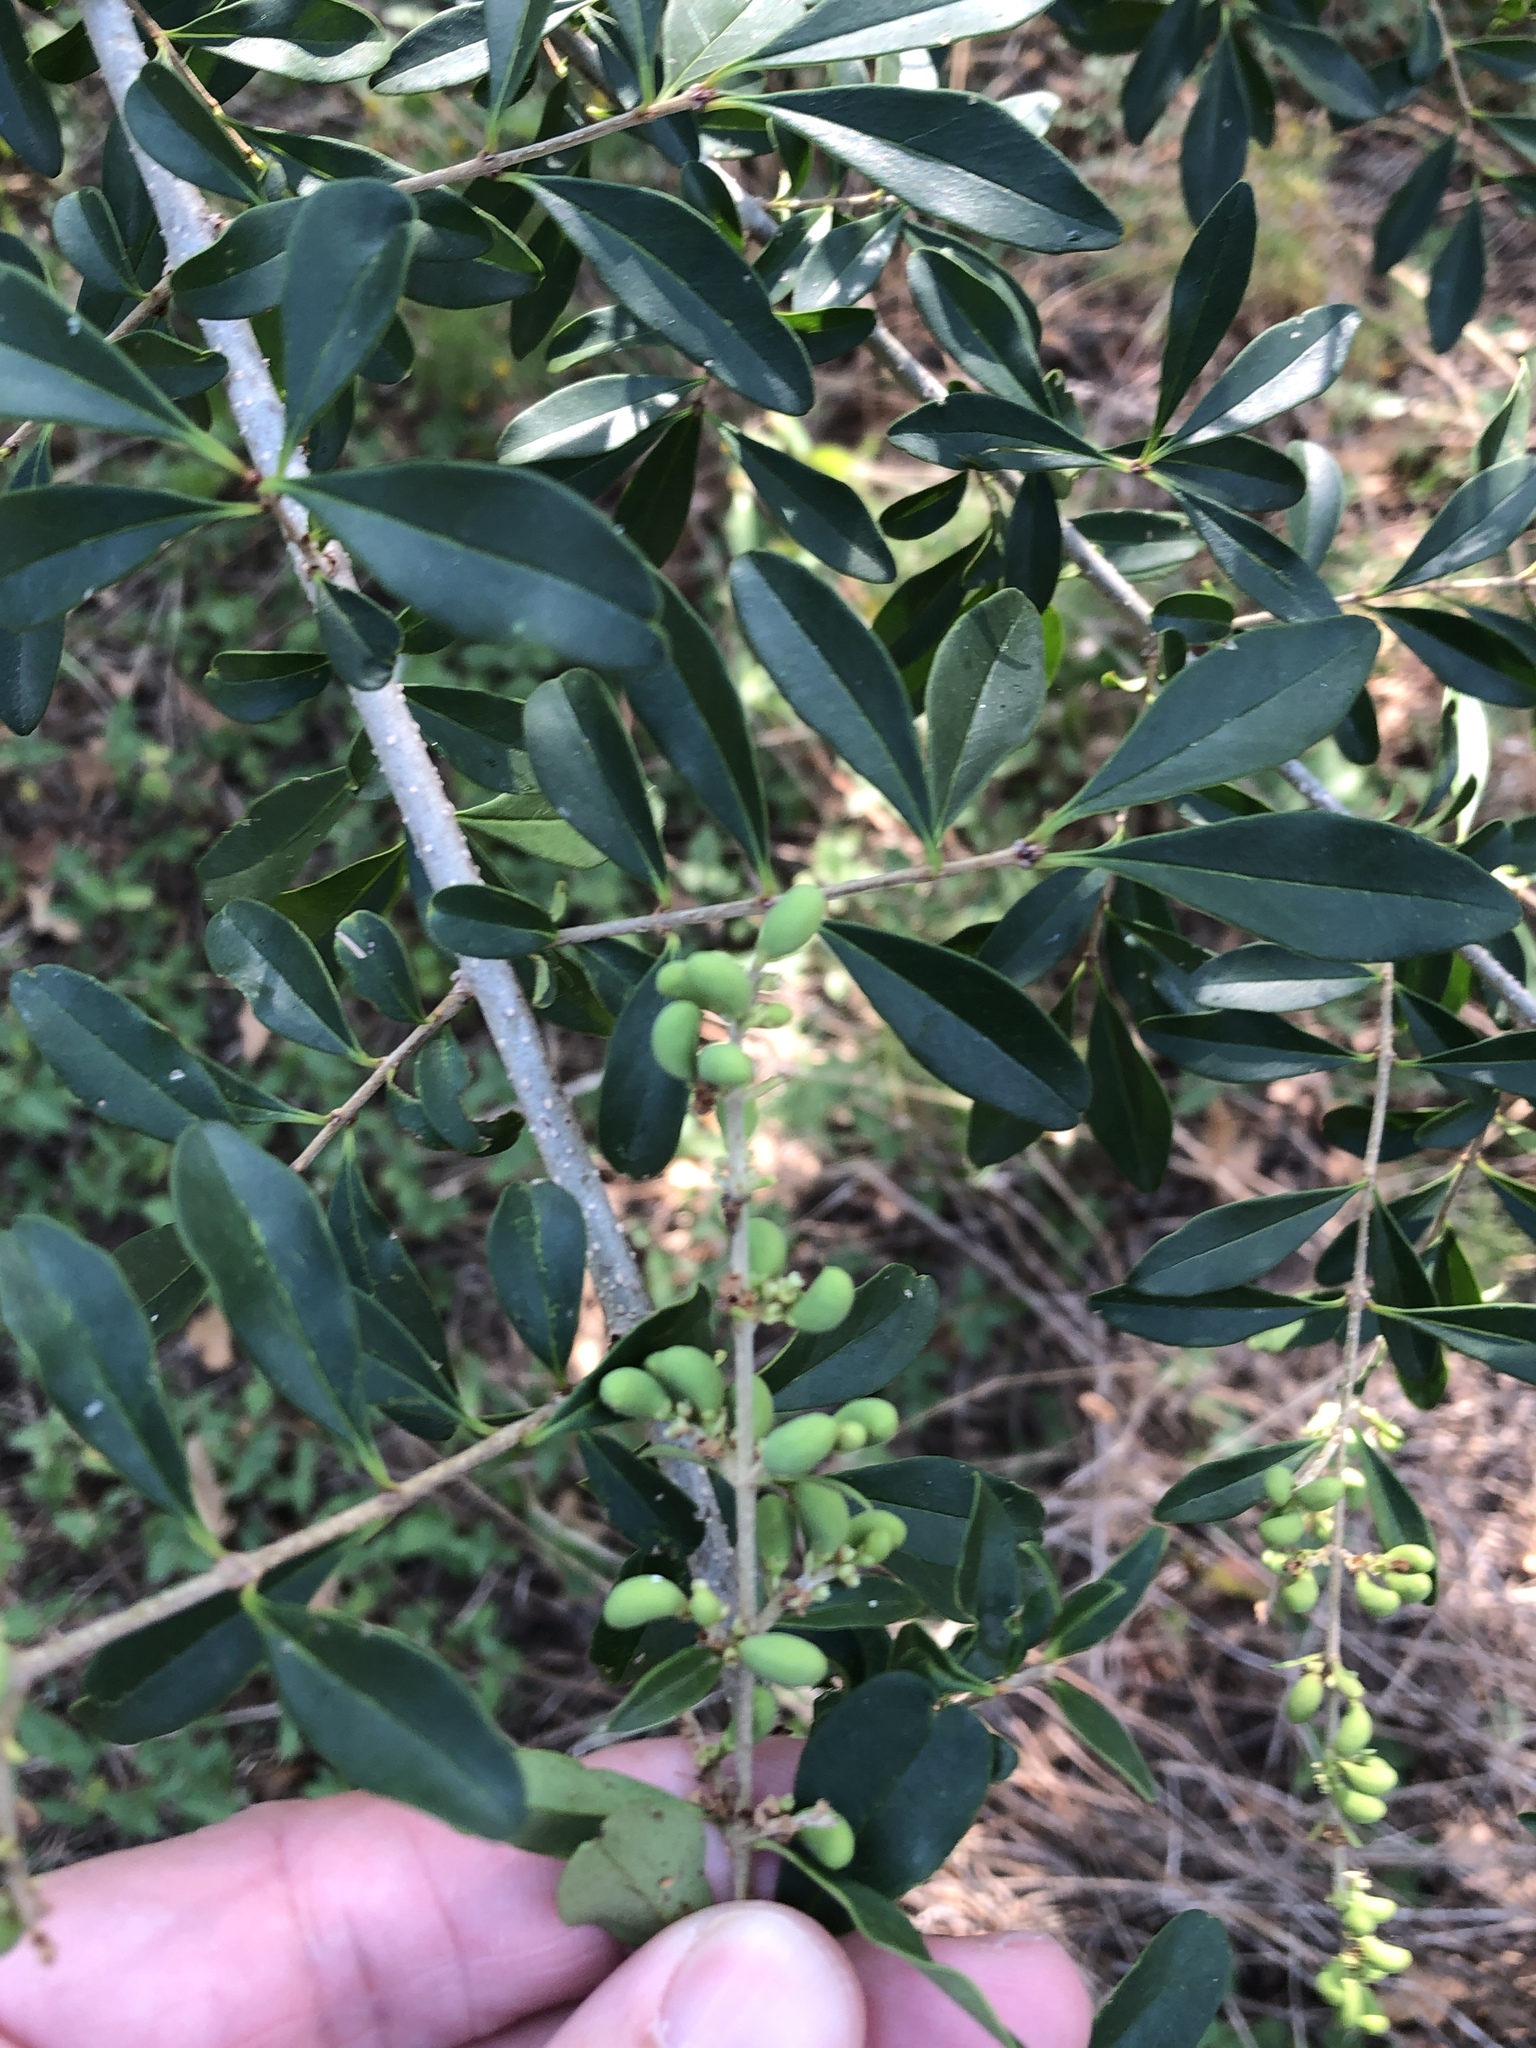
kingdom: Plantae
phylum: Tracheophyta
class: Magnoliopsida
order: Lamiales
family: Oleaceae
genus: Ligustrum
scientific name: Ligustrum quihoui
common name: Waxyleaf privet
